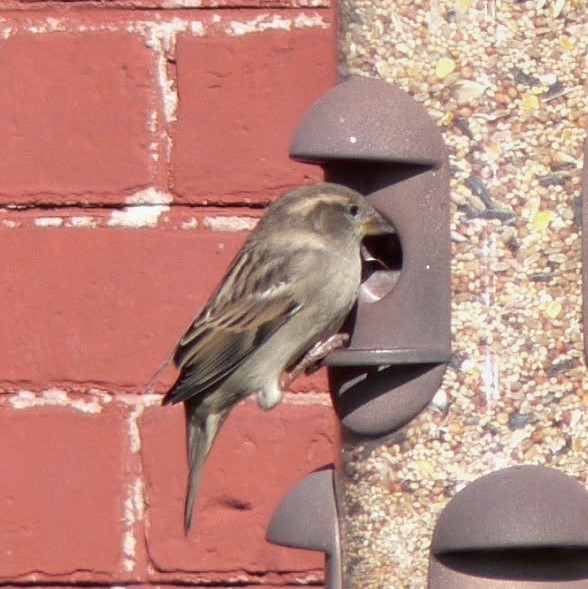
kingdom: Animalia
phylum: Chordata
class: Aves
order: Passeriformes
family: Passeridae
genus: Passer
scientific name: Passer domesticus
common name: House sparrow
